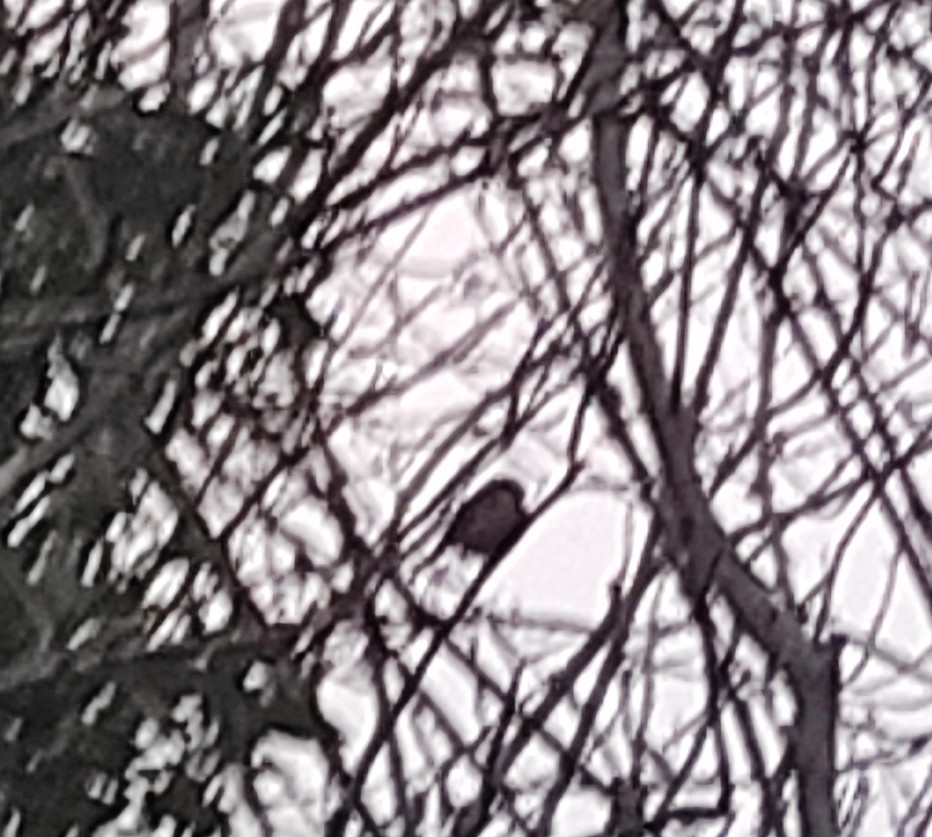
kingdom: Animalia
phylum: Chordata
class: Aves
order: Passeriformes
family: Fringillidae
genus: Pyrrhula
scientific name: Pyrrhula pyrrhula
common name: Eurasian bullfinch
